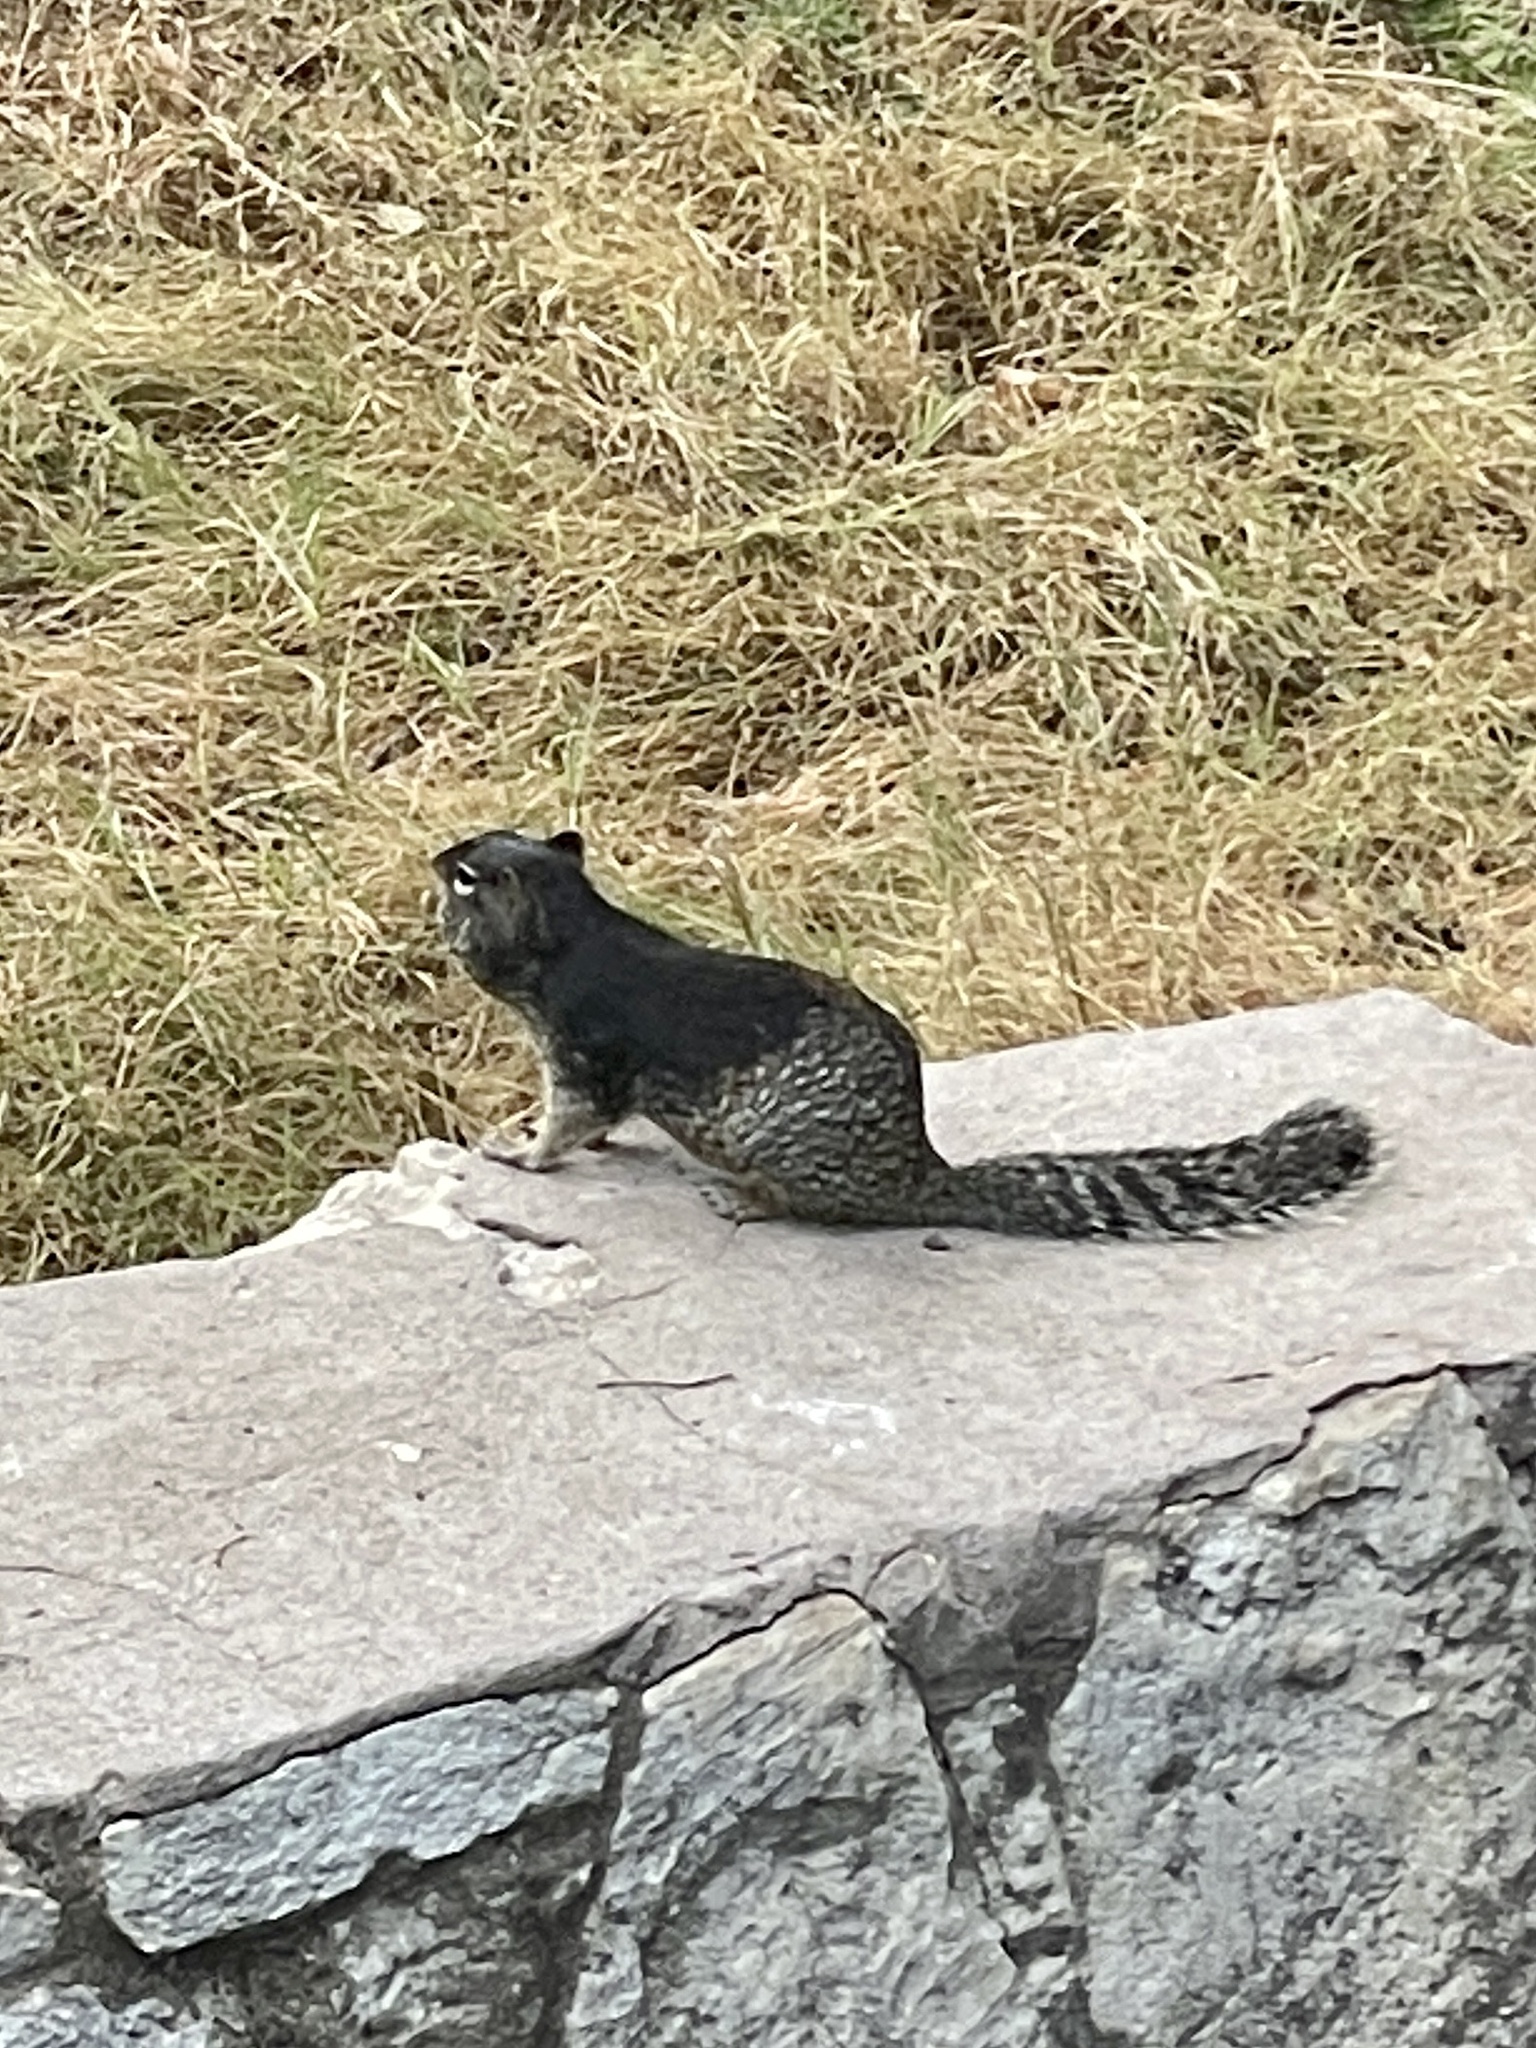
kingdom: Animalia
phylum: Chordata
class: Mammalia
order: Rodentia
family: Sciuridae
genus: Otospermophilus
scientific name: Otospermophilus variegatus
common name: Rock squirrel
